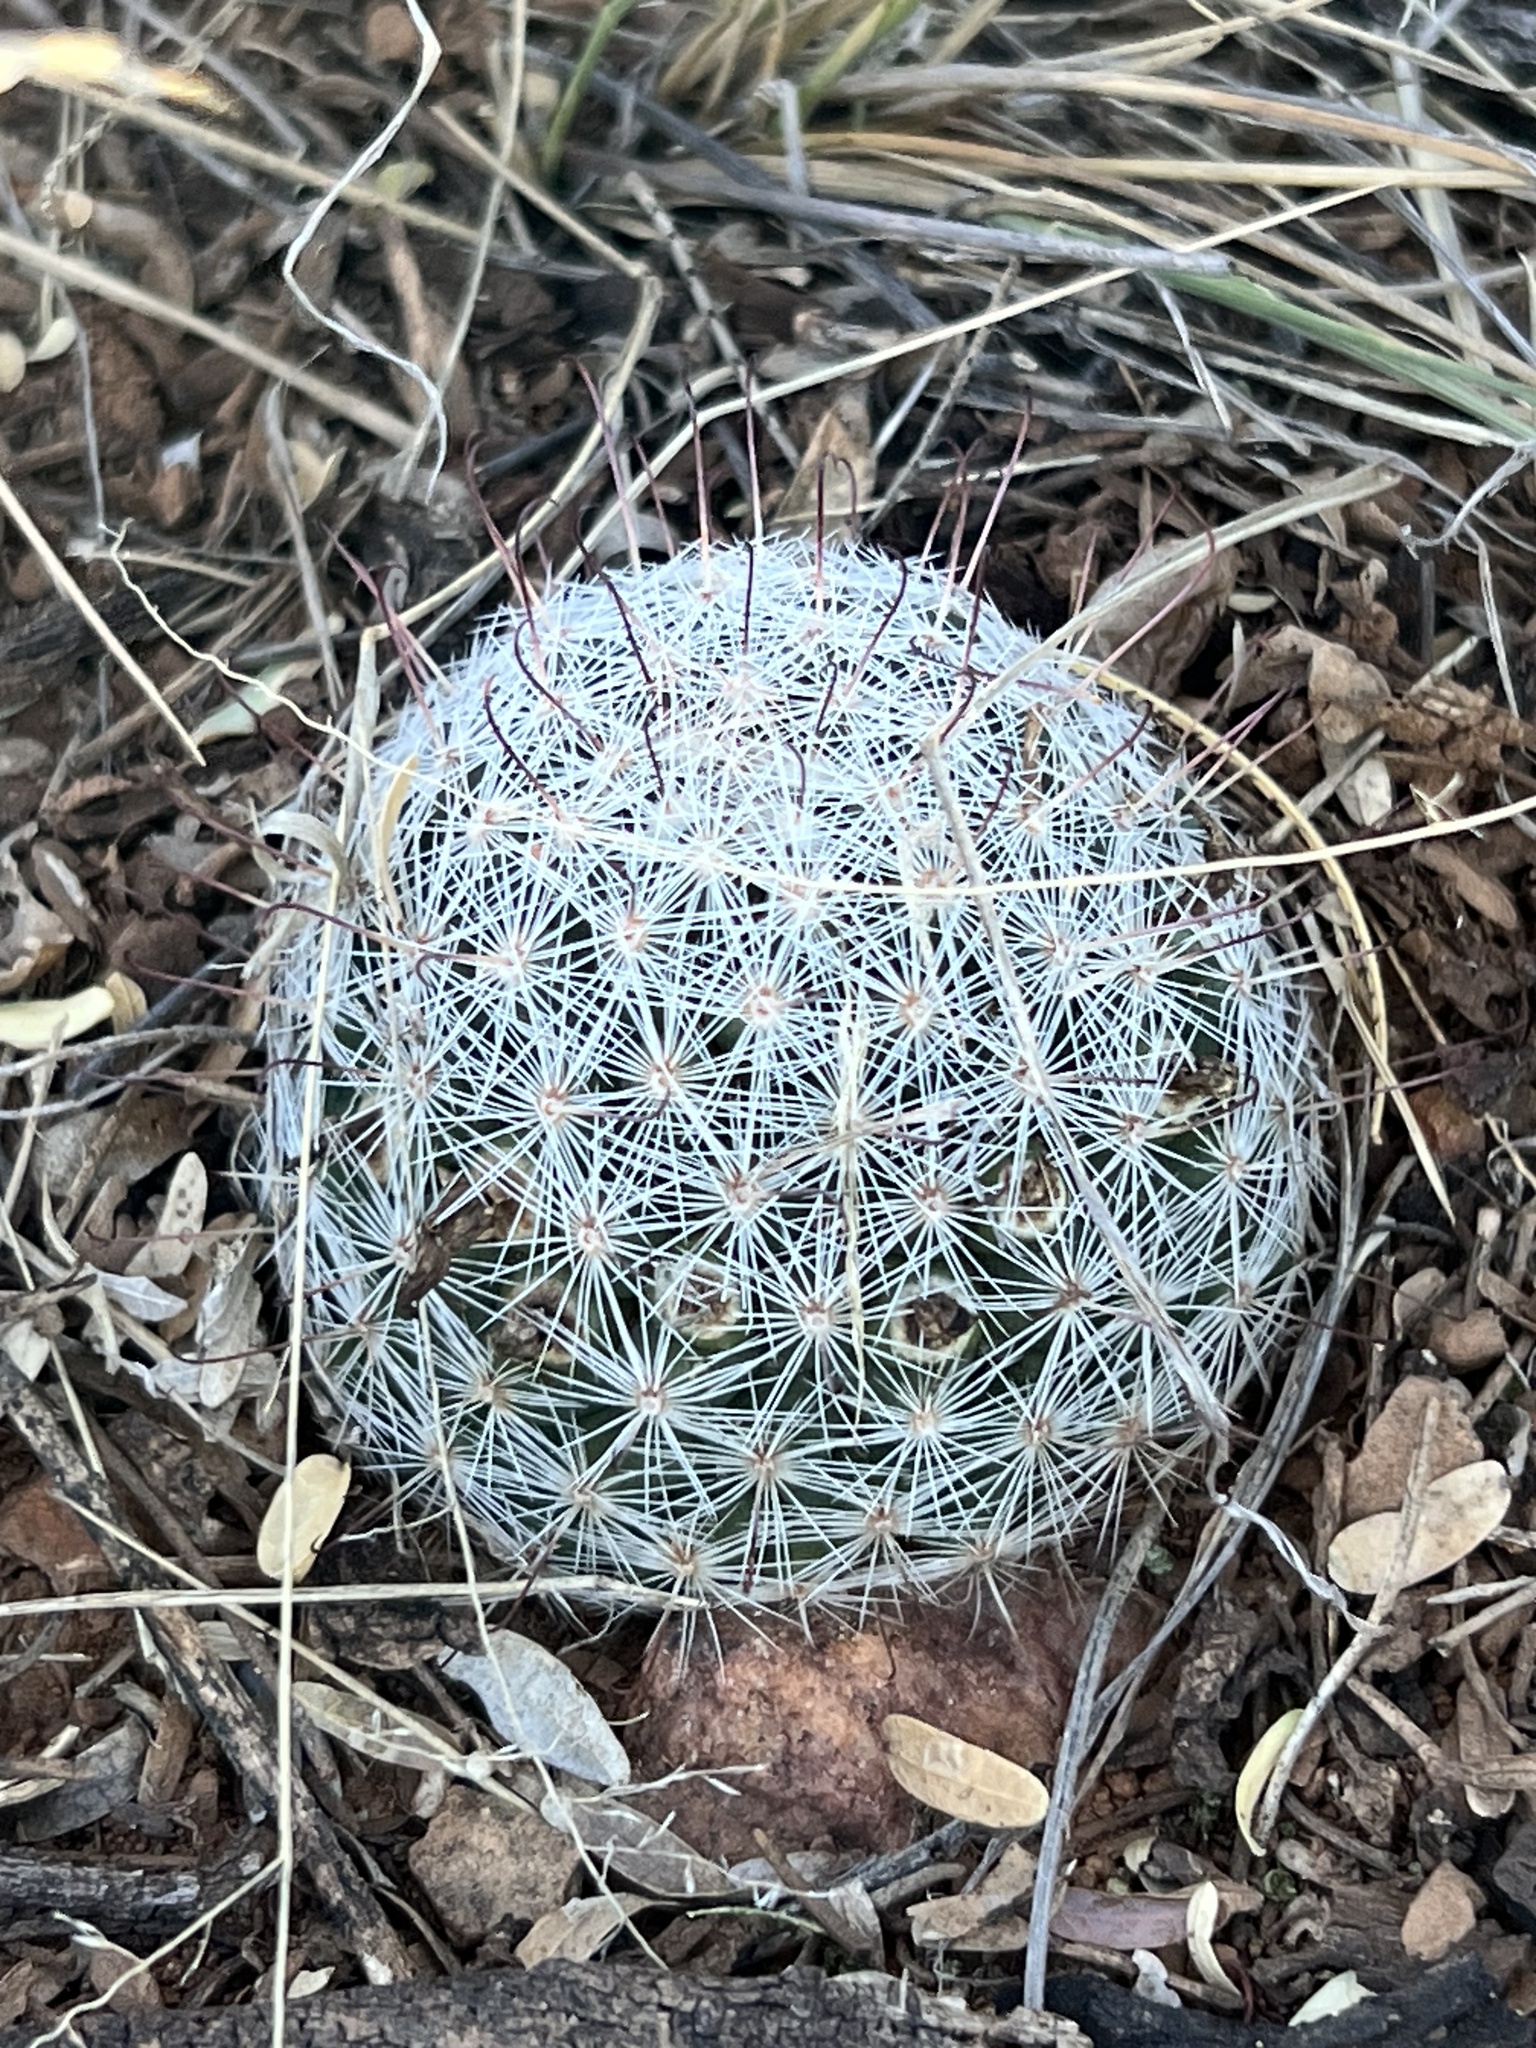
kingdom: Plantae
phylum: Tracheophyta
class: Magnoliopsida
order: Caryophyllales
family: Cactaceae
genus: Cochemiea
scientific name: Cochemiea grahamii
